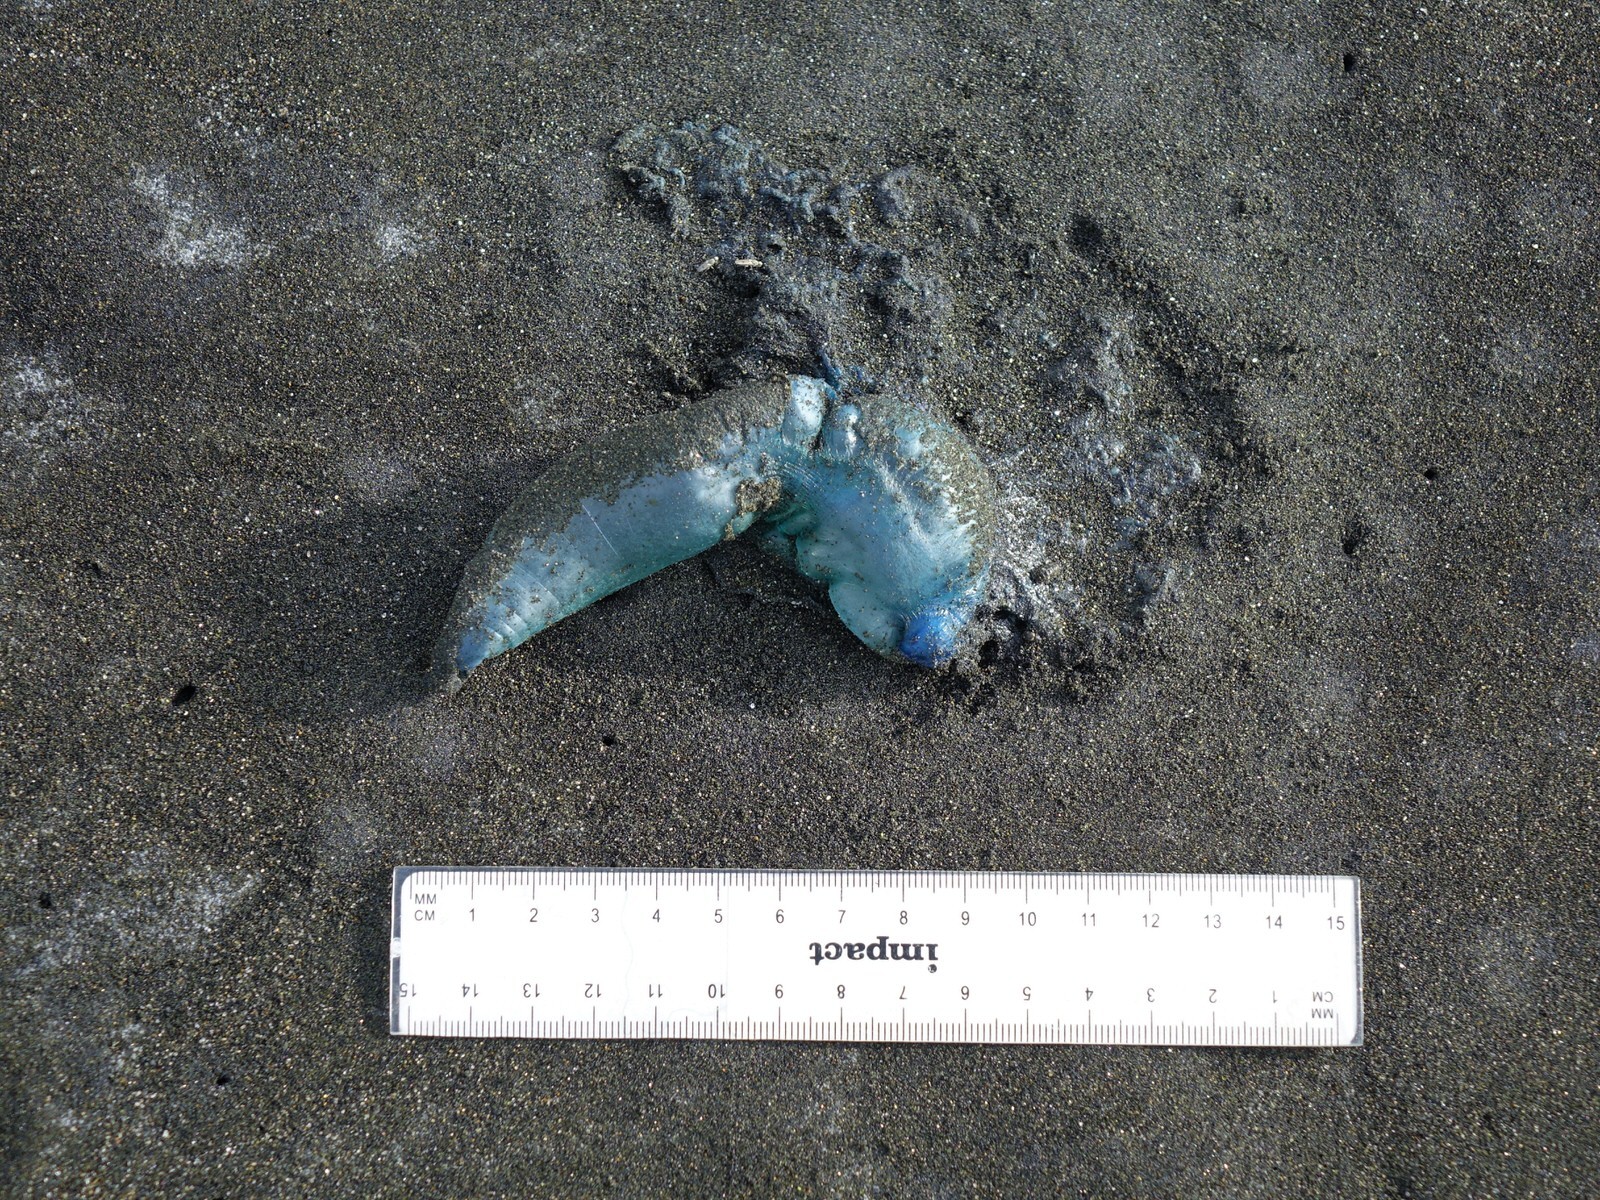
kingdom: Animalia
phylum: Cnidaria
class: Hydrozoa
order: Siphonophorae
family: Physaliidae
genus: Physalia
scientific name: Physalia physalis
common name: Portuguese man-of-war
